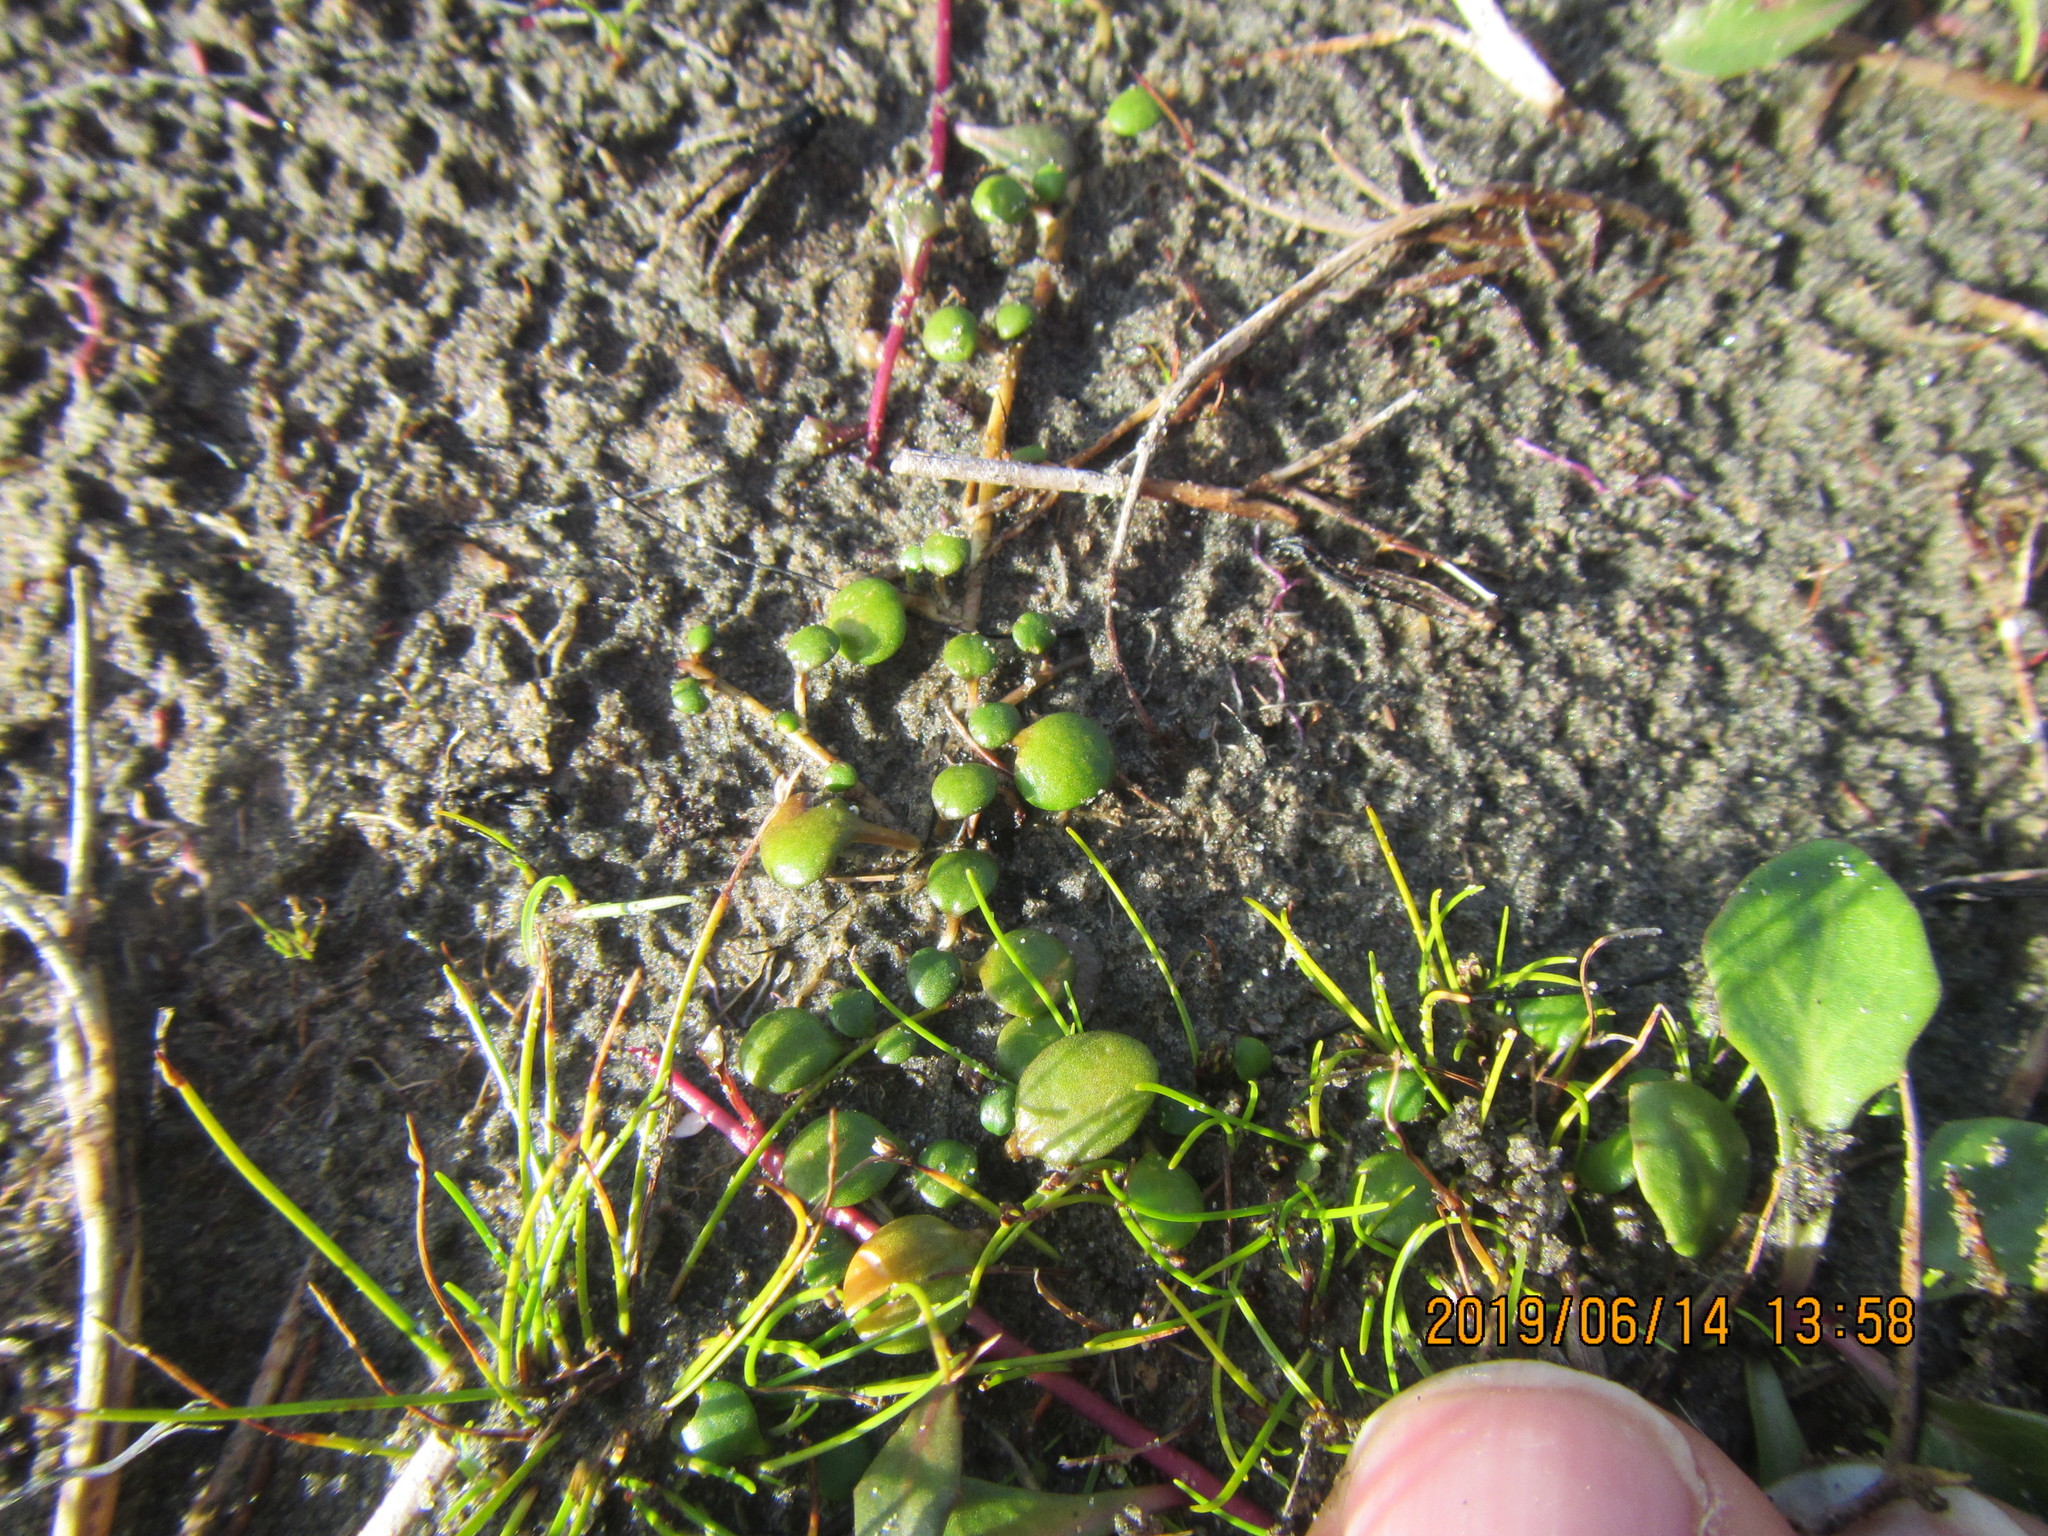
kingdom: Plantae
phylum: Tracheophyta
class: Magnoliopsida
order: Asterales
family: Goodeniaceae
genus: Goodenia
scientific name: Goodenia heenanii
